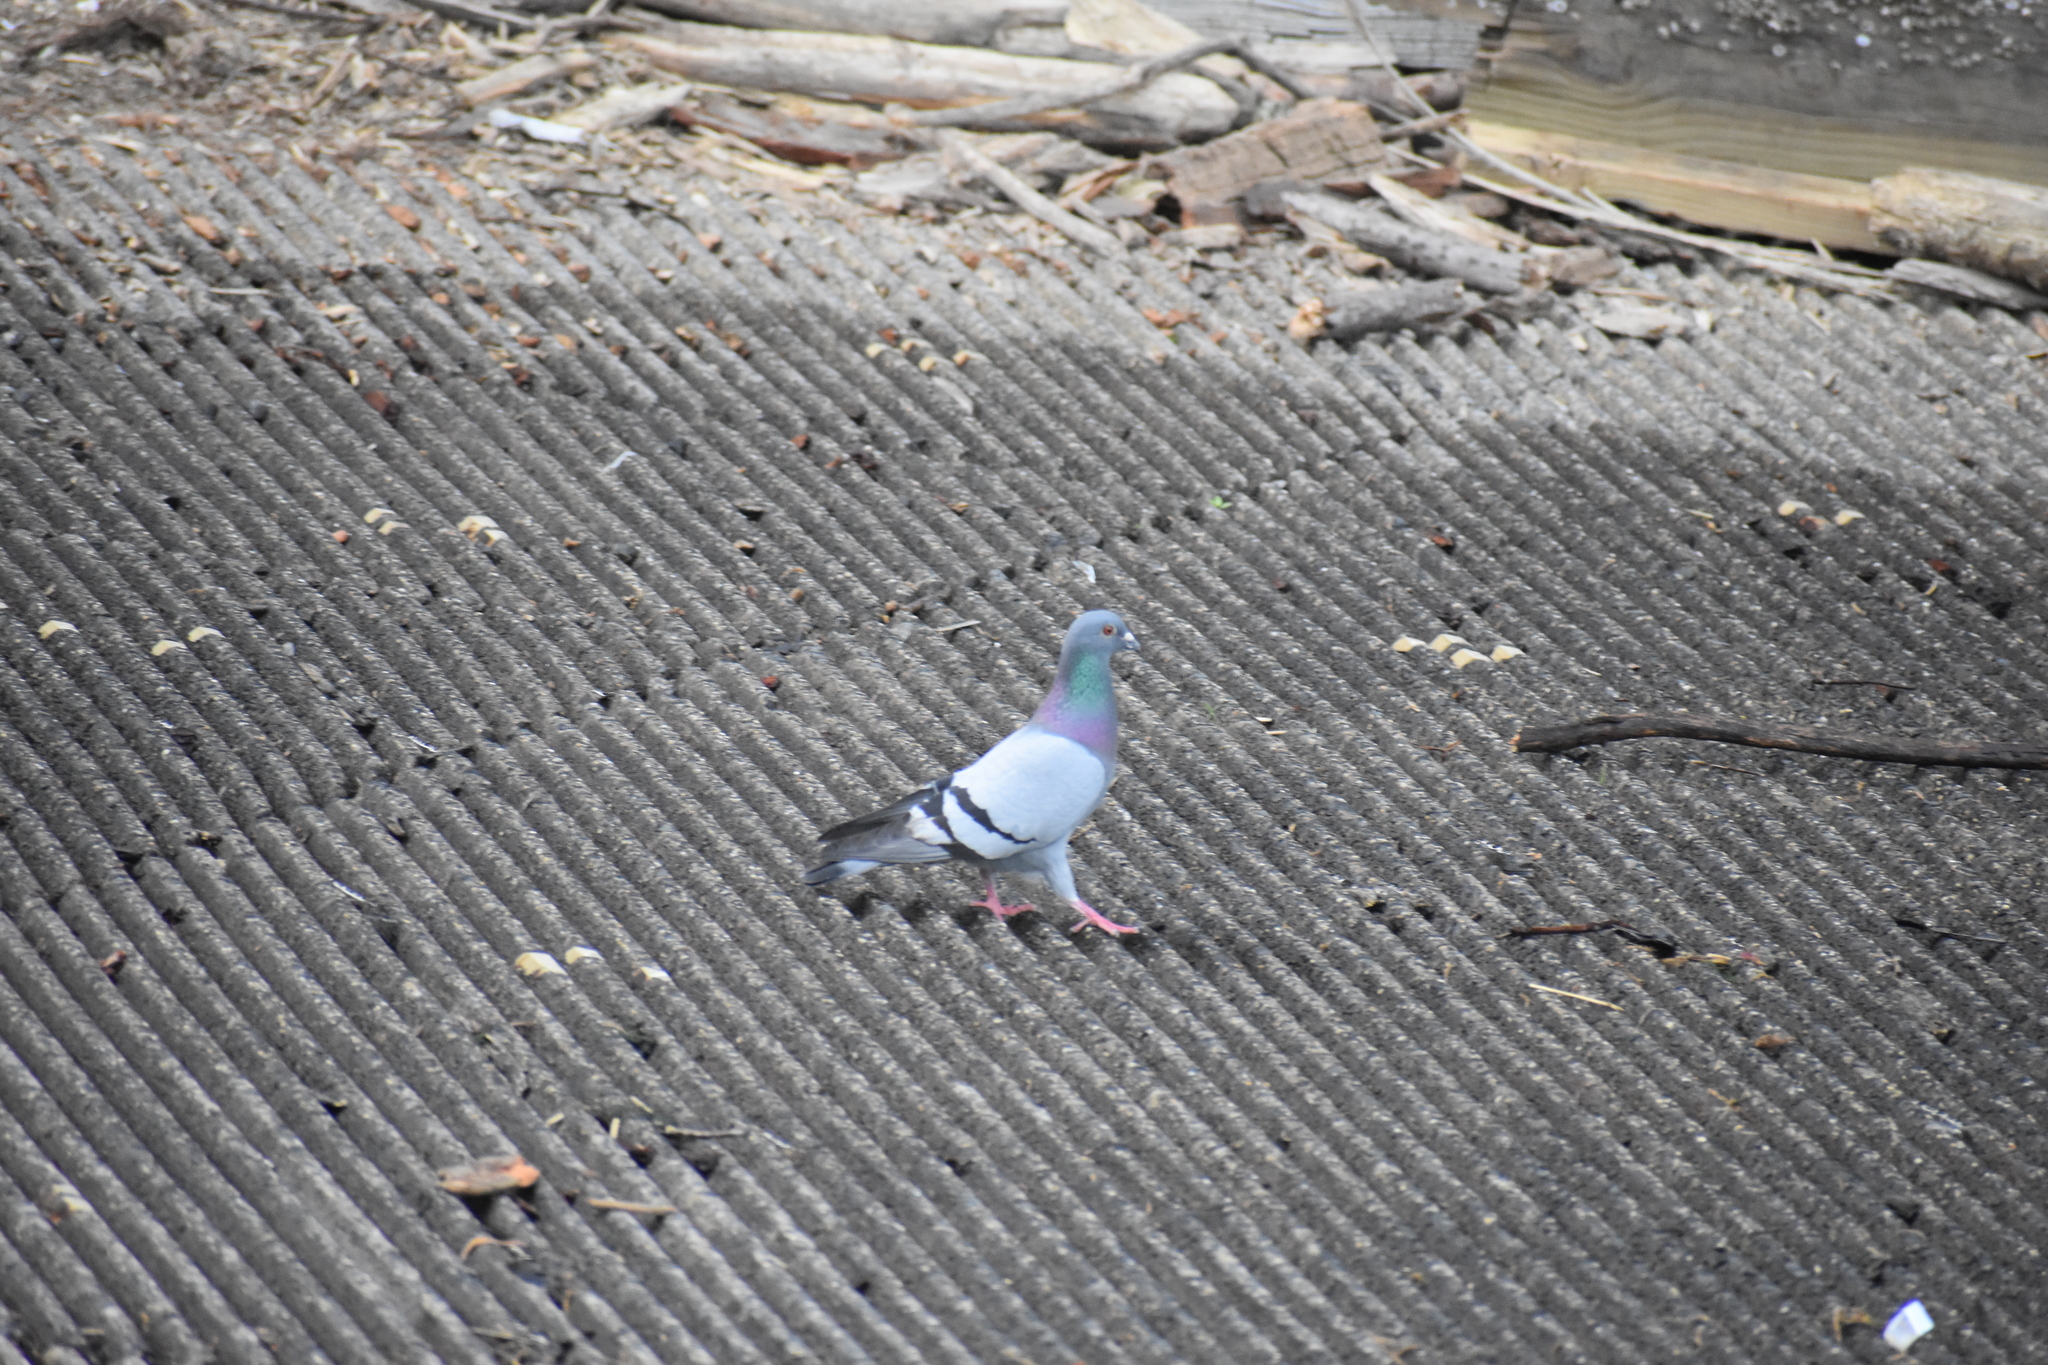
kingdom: Animalia
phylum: Chordata
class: Aves
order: Columbiformes
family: Columbidae
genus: Columba
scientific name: Columba livia
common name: Rock pigeon
